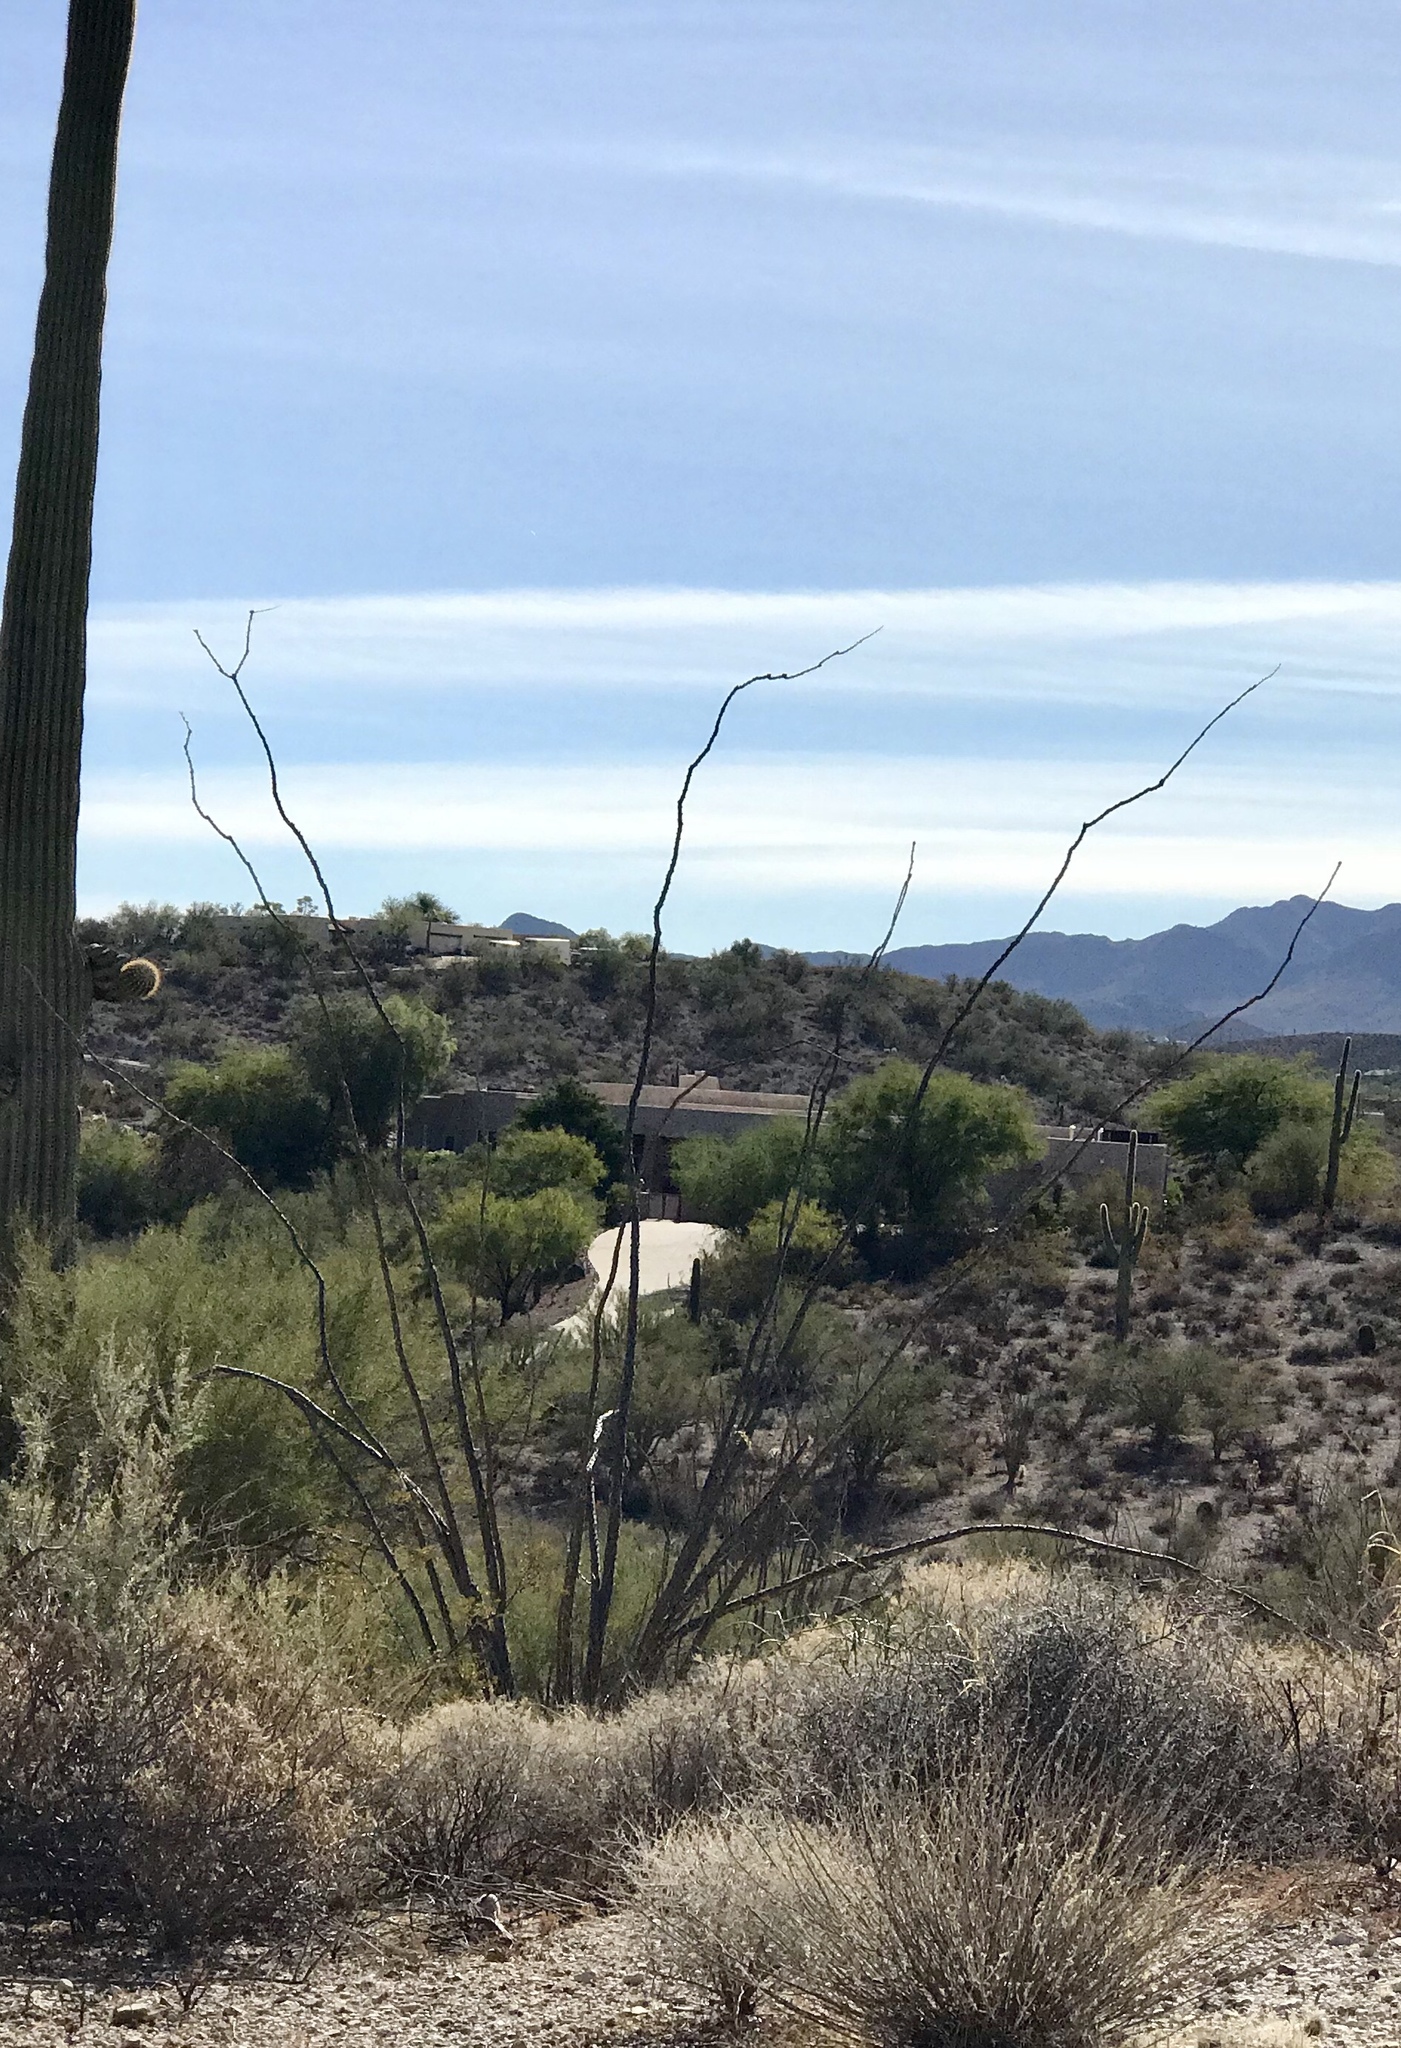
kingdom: Plantae
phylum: Tracheophyta
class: Magnoliopsida
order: Ericales
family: Fouquieriaceae
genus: Fouquieria
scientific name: Fouquieria splendens
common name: Vine-cactus
